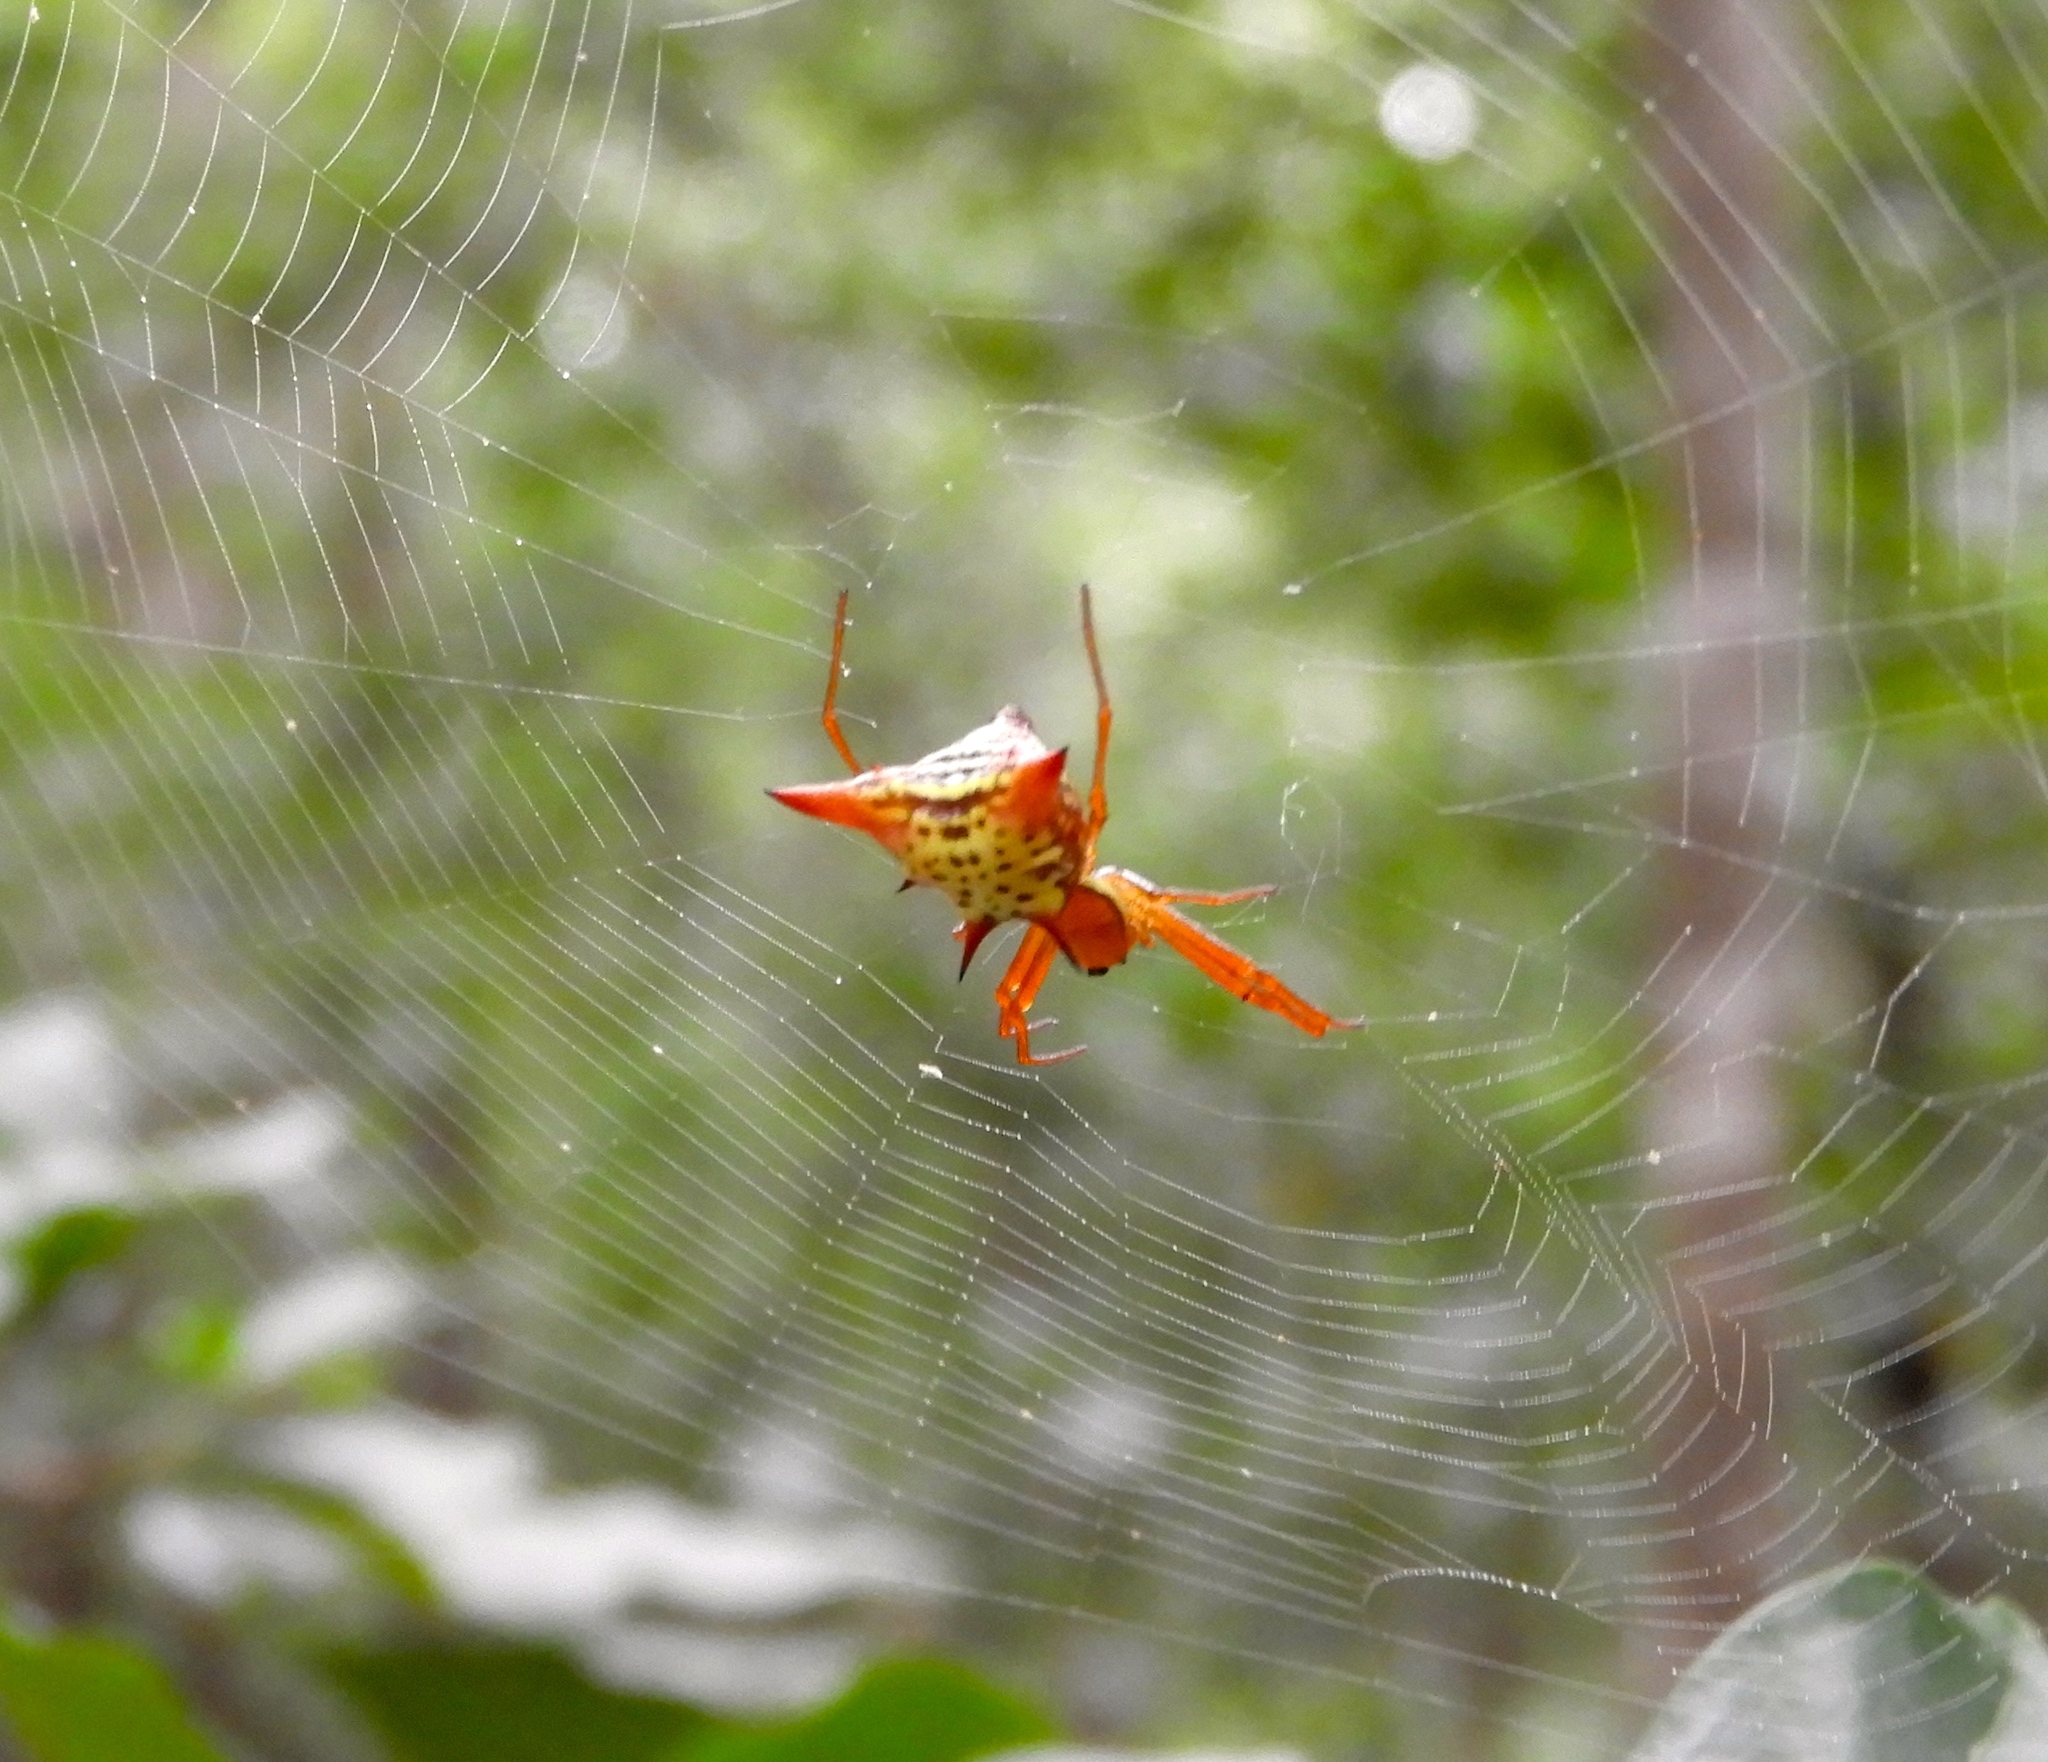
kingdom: Animalia
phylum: Arthropoda
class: Arachnida
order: Araneae
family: Araneidae
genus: Micrathena
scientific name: Micrathena sagittata
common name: Orb weavers
